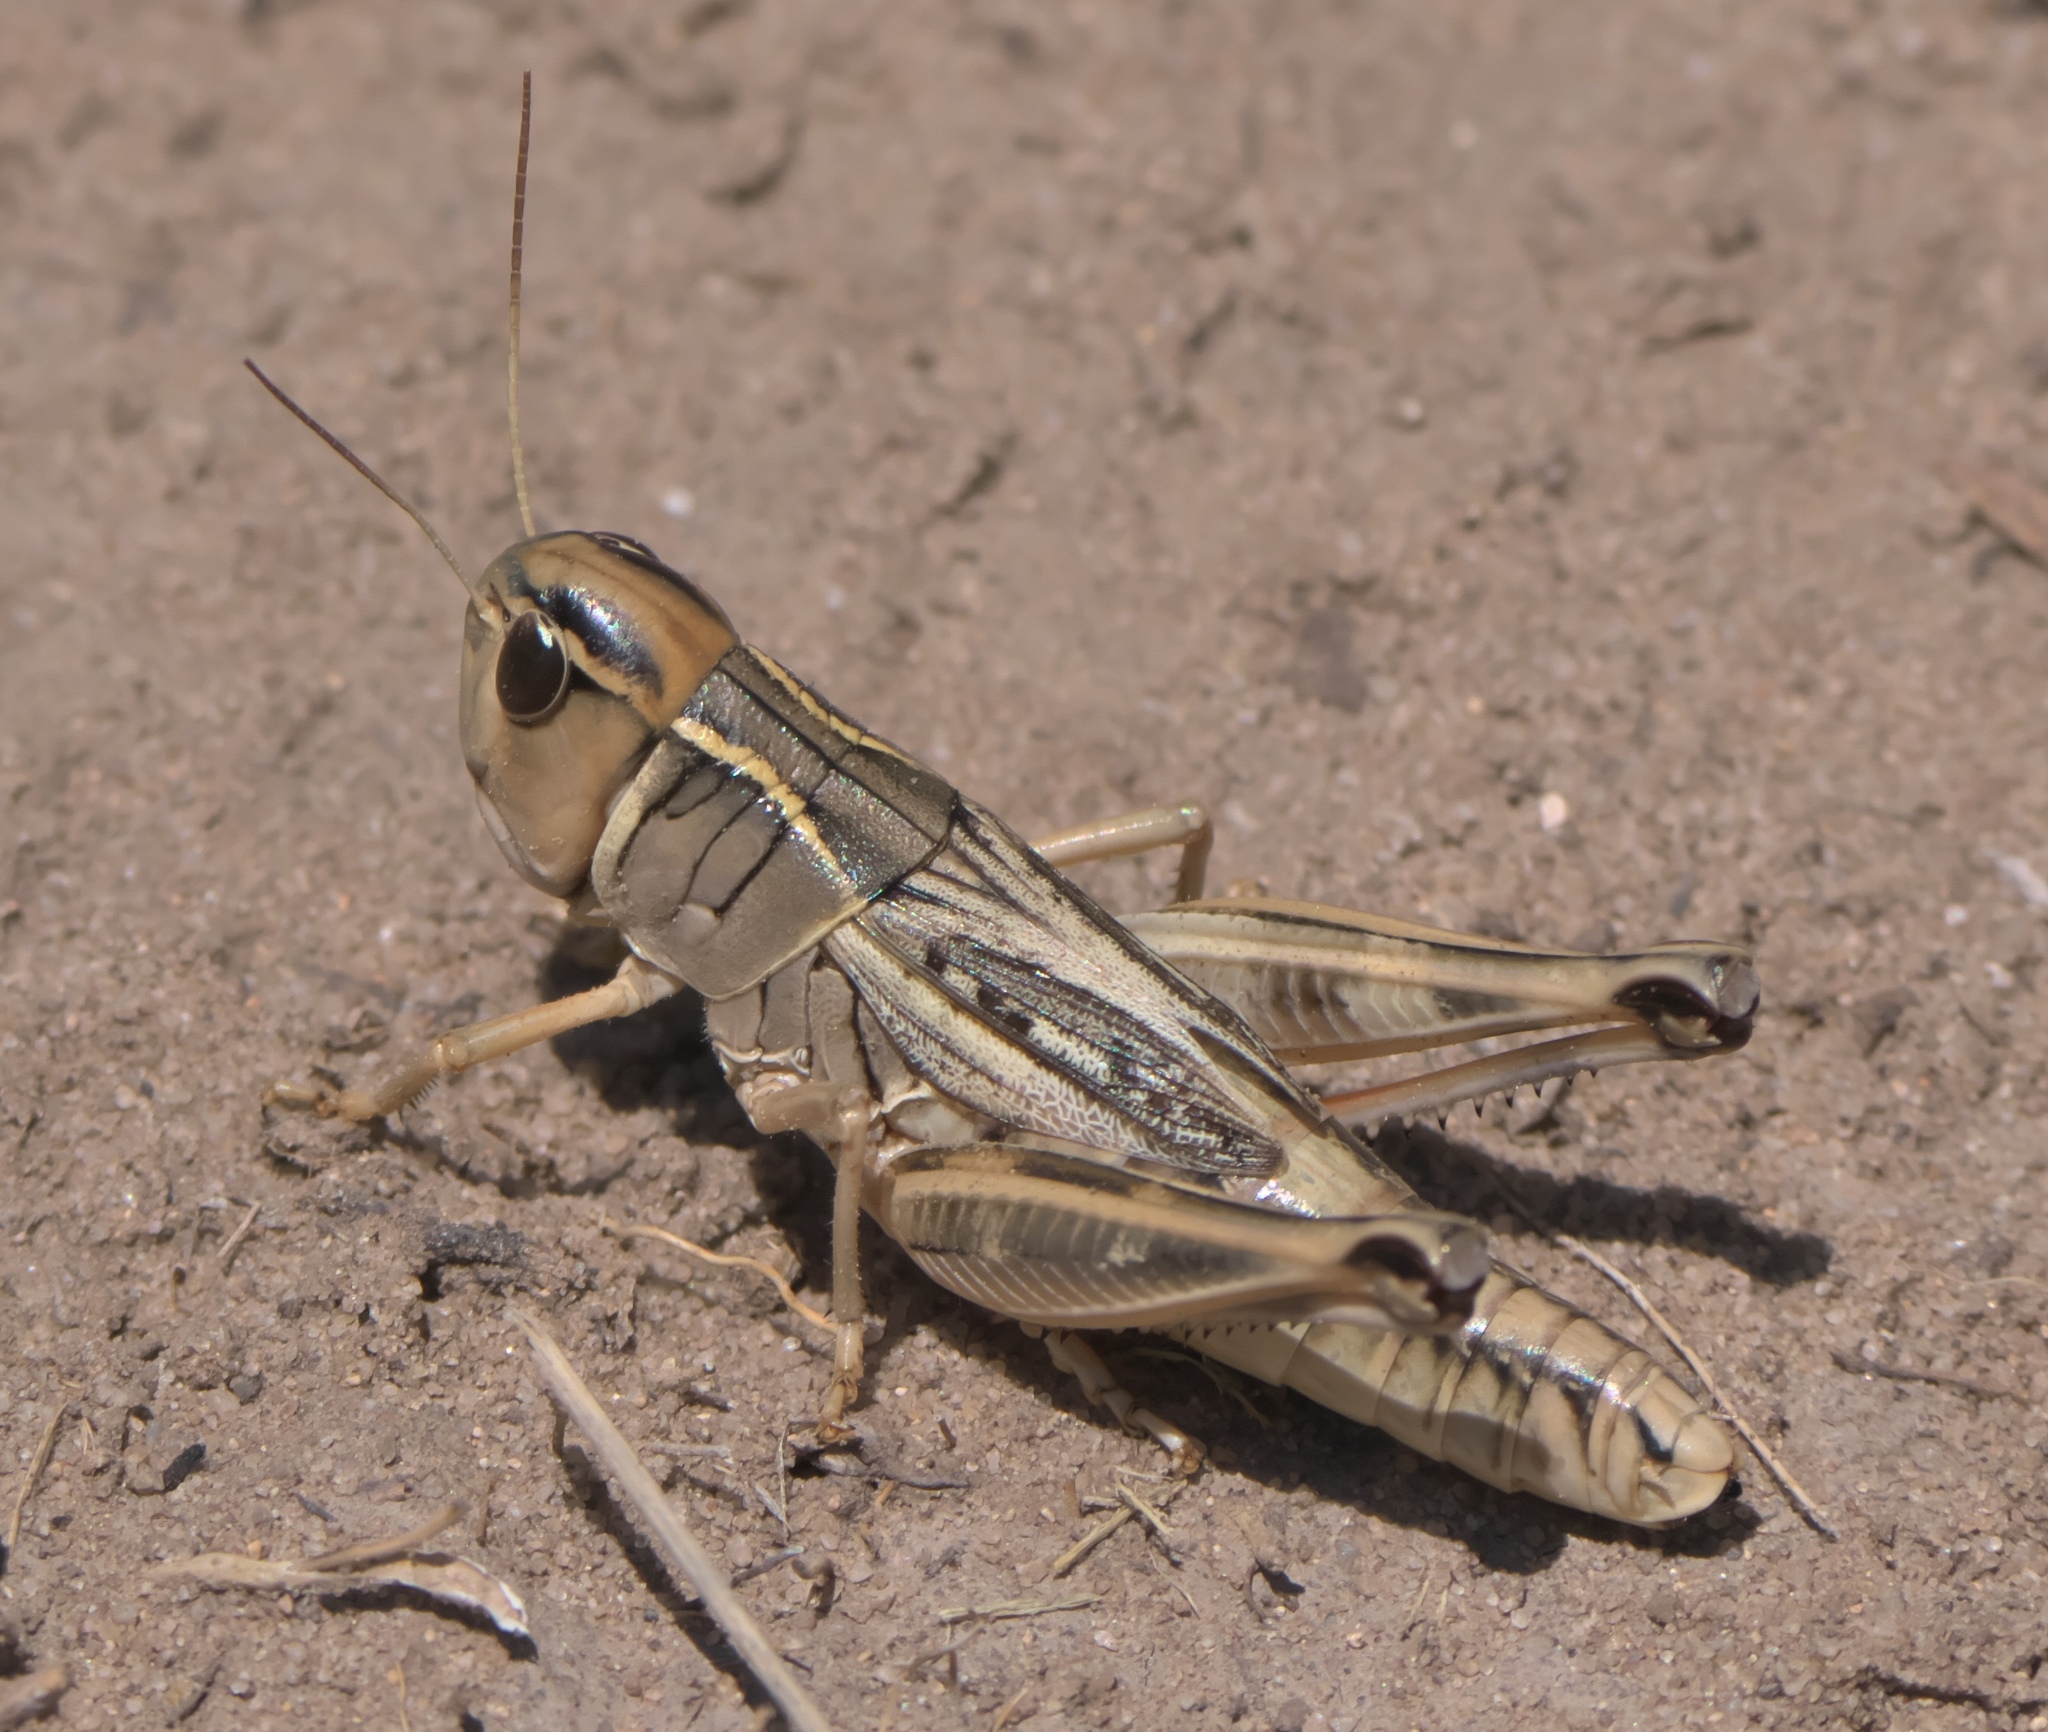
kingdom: Animalia
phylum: Arthropoda
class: Insecta
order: Orthoptera
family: Acrididae
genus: Boopedon
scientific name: Boopedon nubilum
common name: Ebony grasshopper
